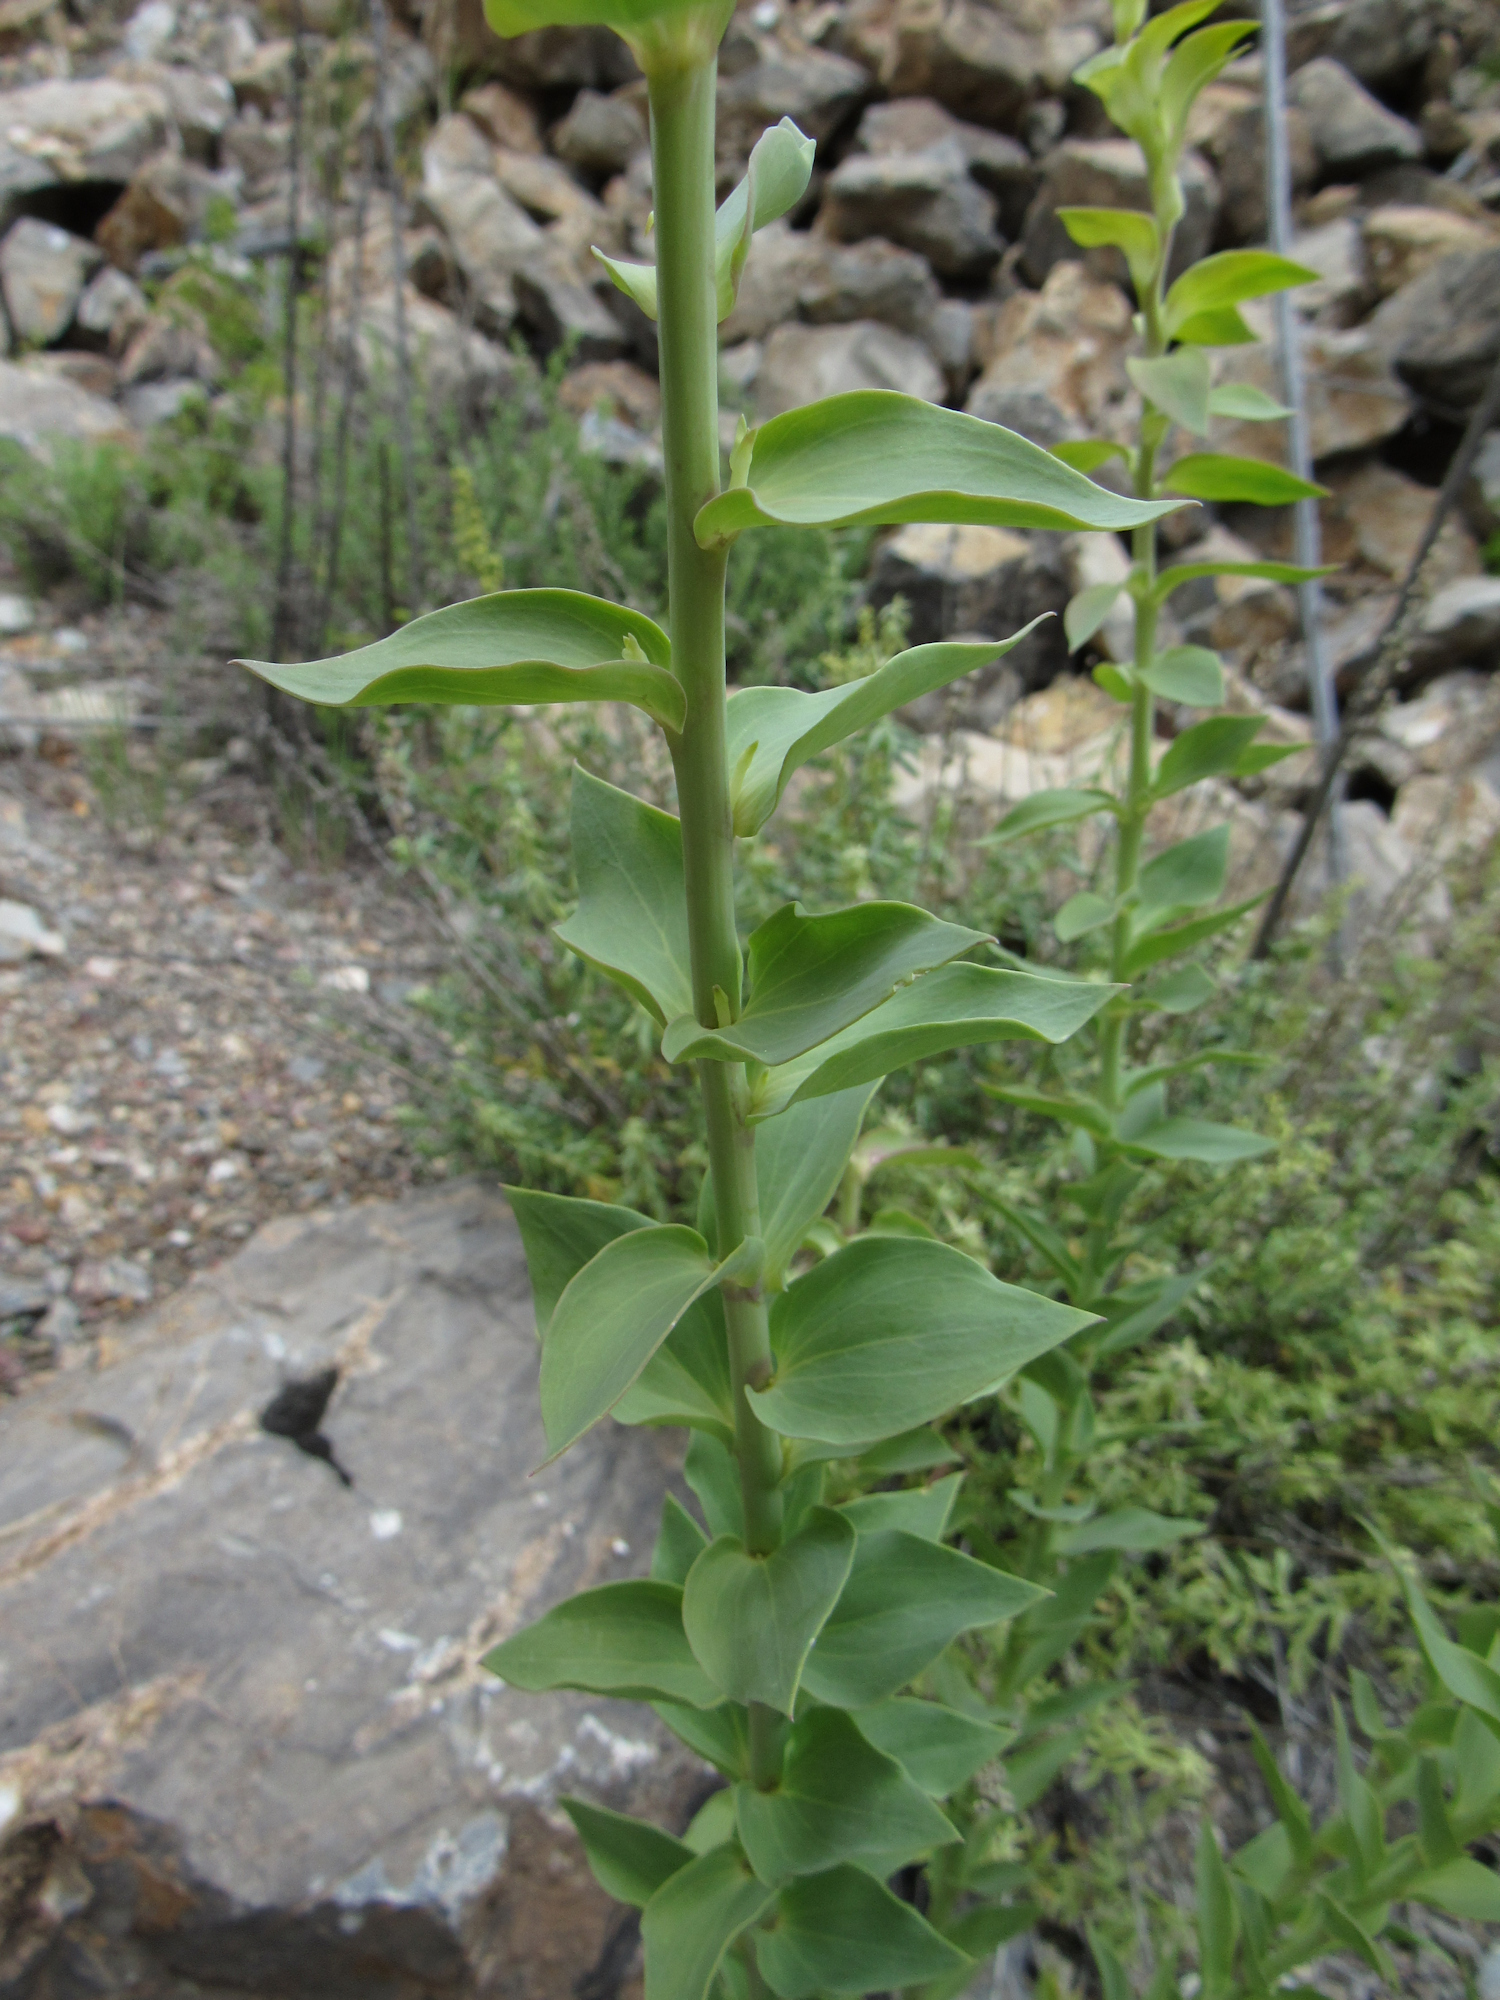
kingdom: Plantae
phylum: Tracheophyta
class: Magnoliopsida
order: Lamiales
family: Plantaginaceae
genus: Linaria
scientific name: Linaria dalmatica
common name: Dalmatian toadflax
